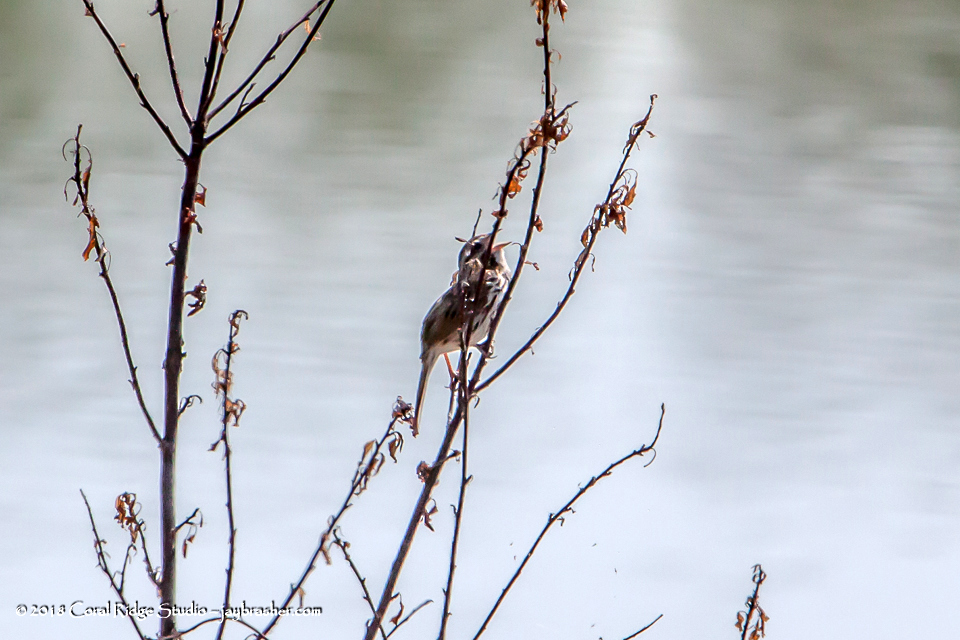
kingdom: Animalia
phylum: Chordata
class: Aves
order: Passeriformes
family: Passerellidae
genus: Melospiza
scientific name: Melospiza melodia
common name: Song sparrow
